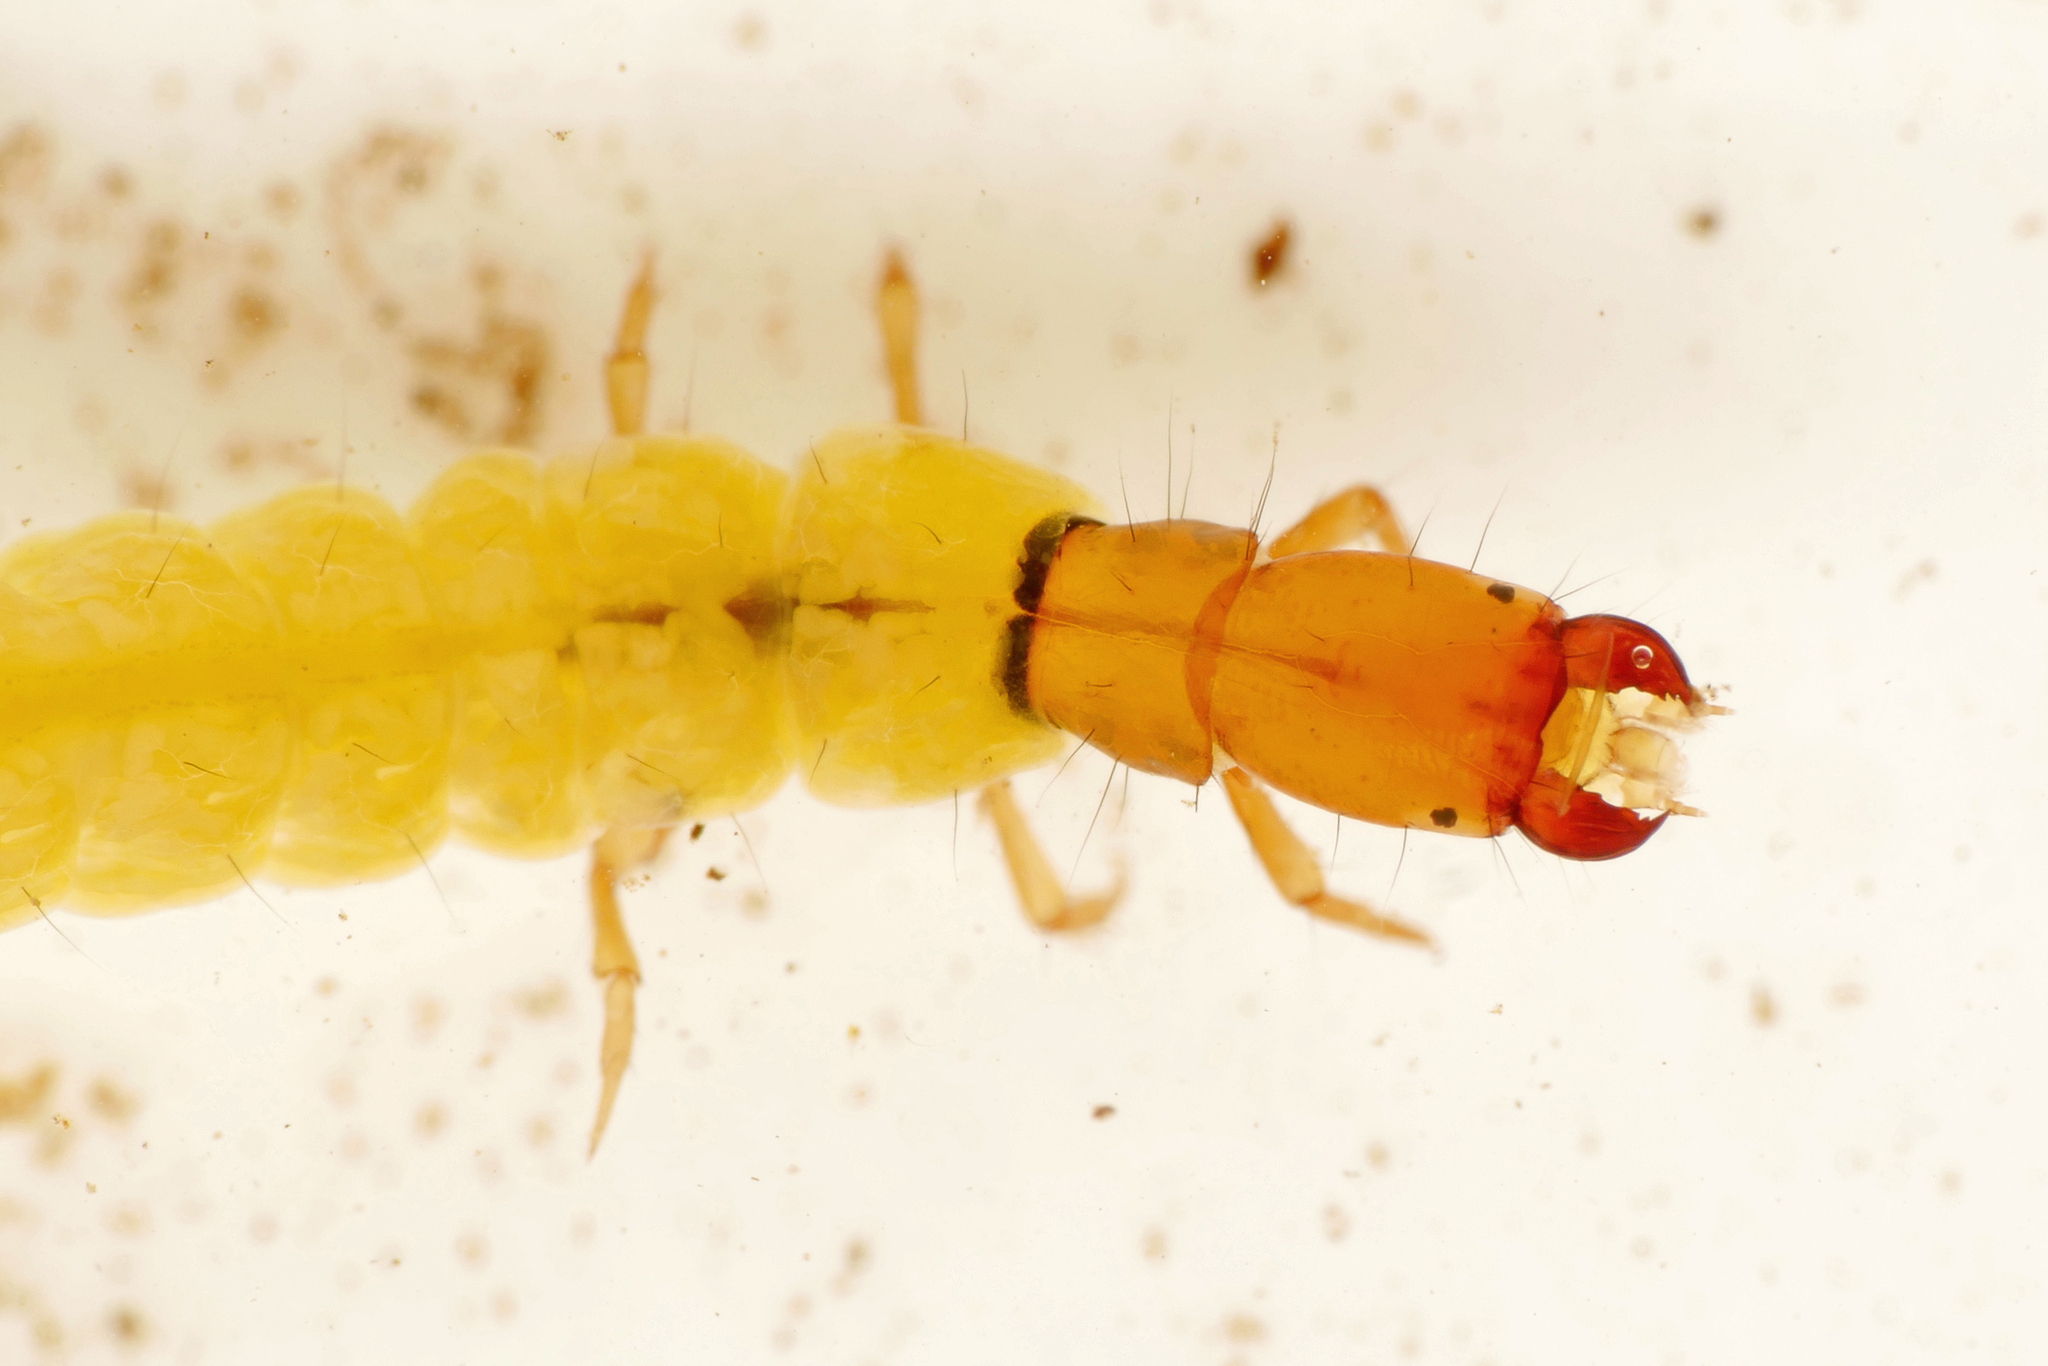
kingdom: Animalia
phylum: Arthropoda
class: Insecta
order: Trichoptera
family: Philopotamidae
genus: Philopotamus
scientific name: Philopotamus montanus
